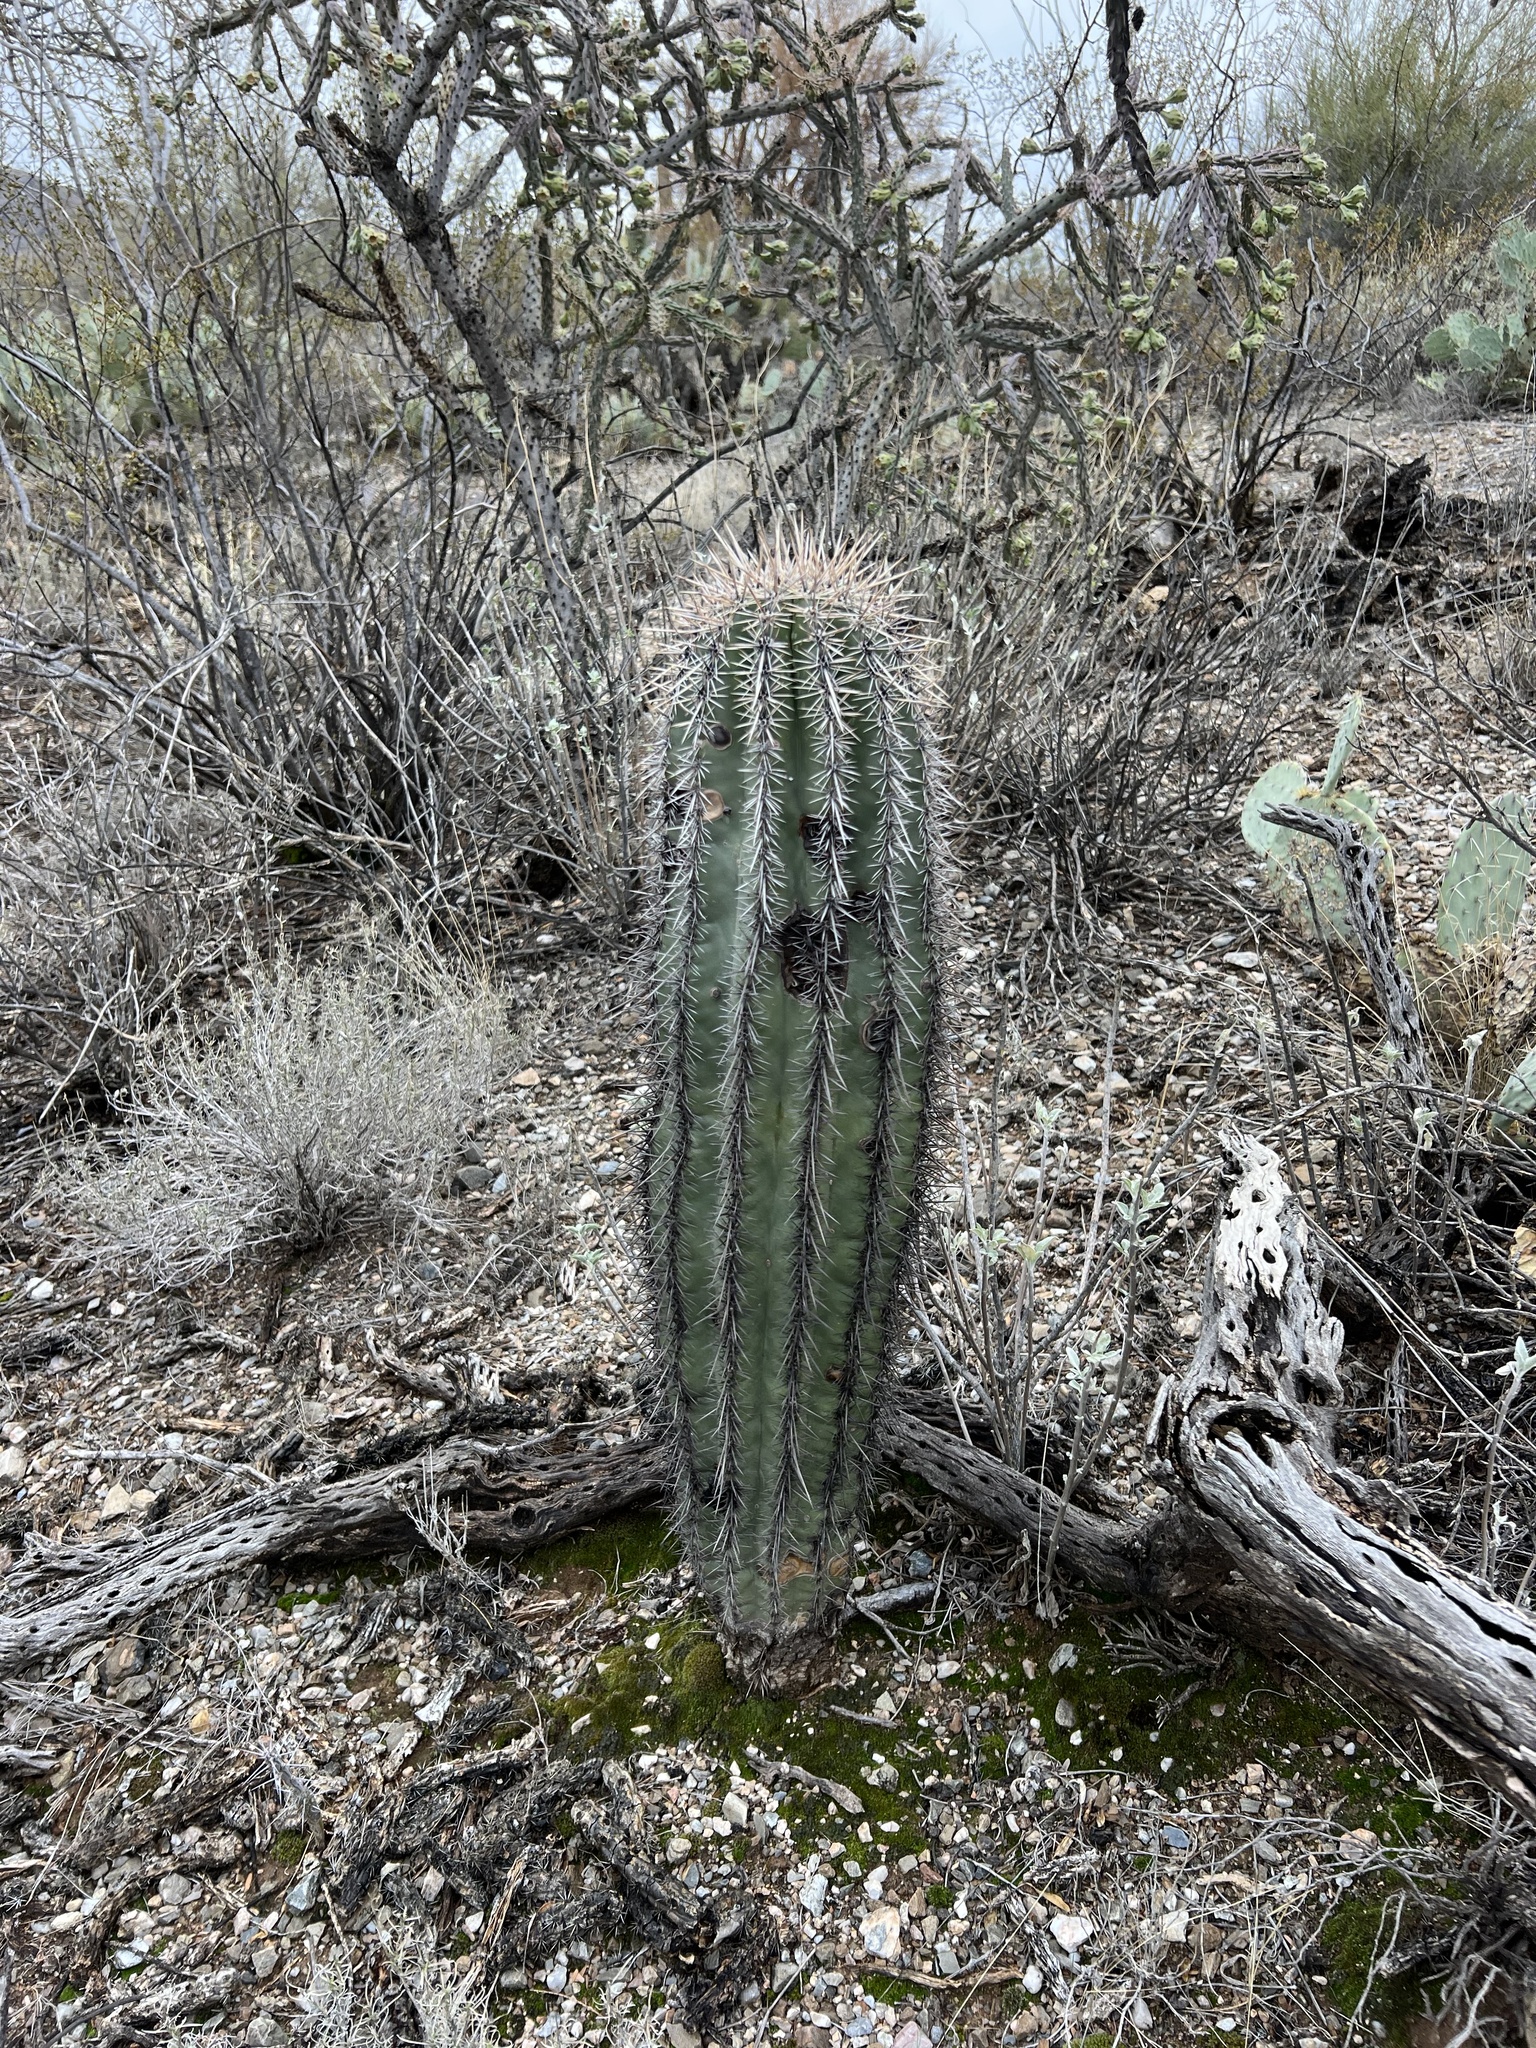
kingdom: Plantae
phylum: Tracheophyta
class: Magnoliopsida
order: Caryophyllales
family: Cactaceae
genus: Carnegiea
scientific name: Carnegiea gigantea
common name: Saguaro
